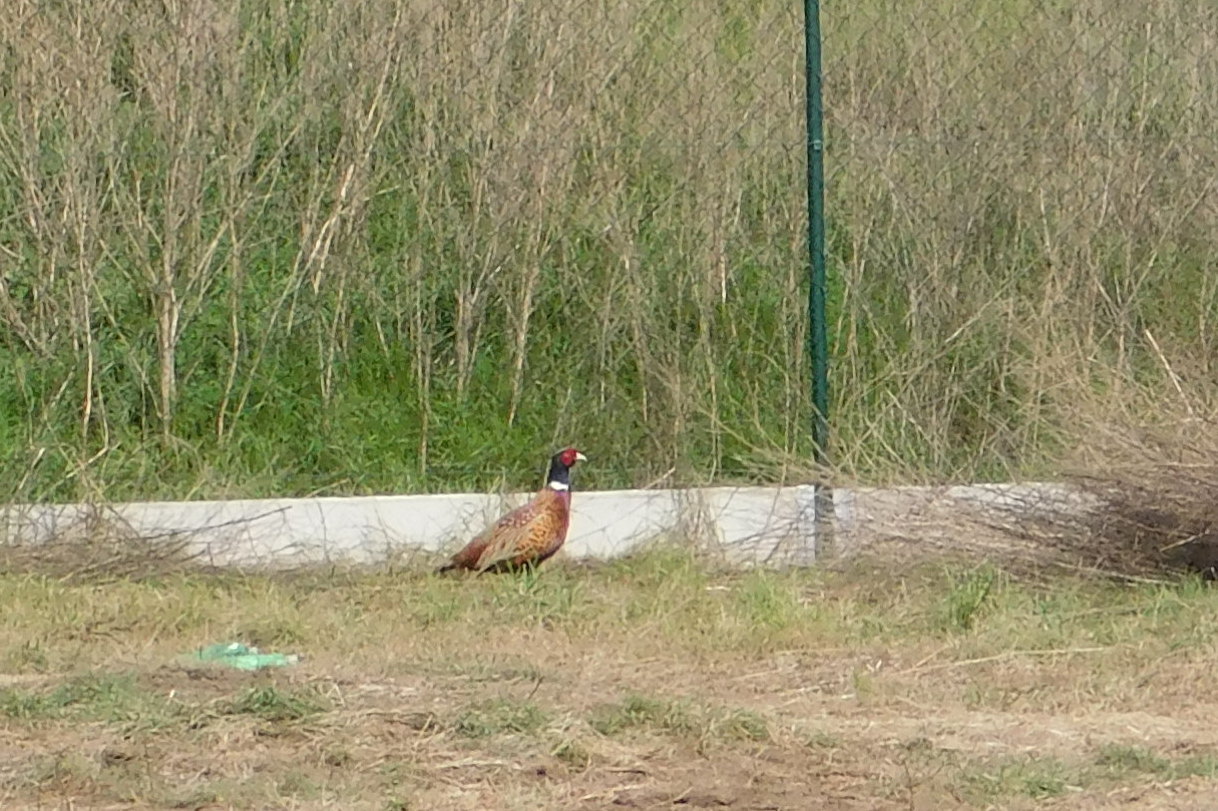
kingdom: Animalia
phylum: Chordata
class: Aves
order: Galliformes
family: Phasianidae
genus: Phasianus
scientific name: Phasianus colchicus
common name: Common pheasant
